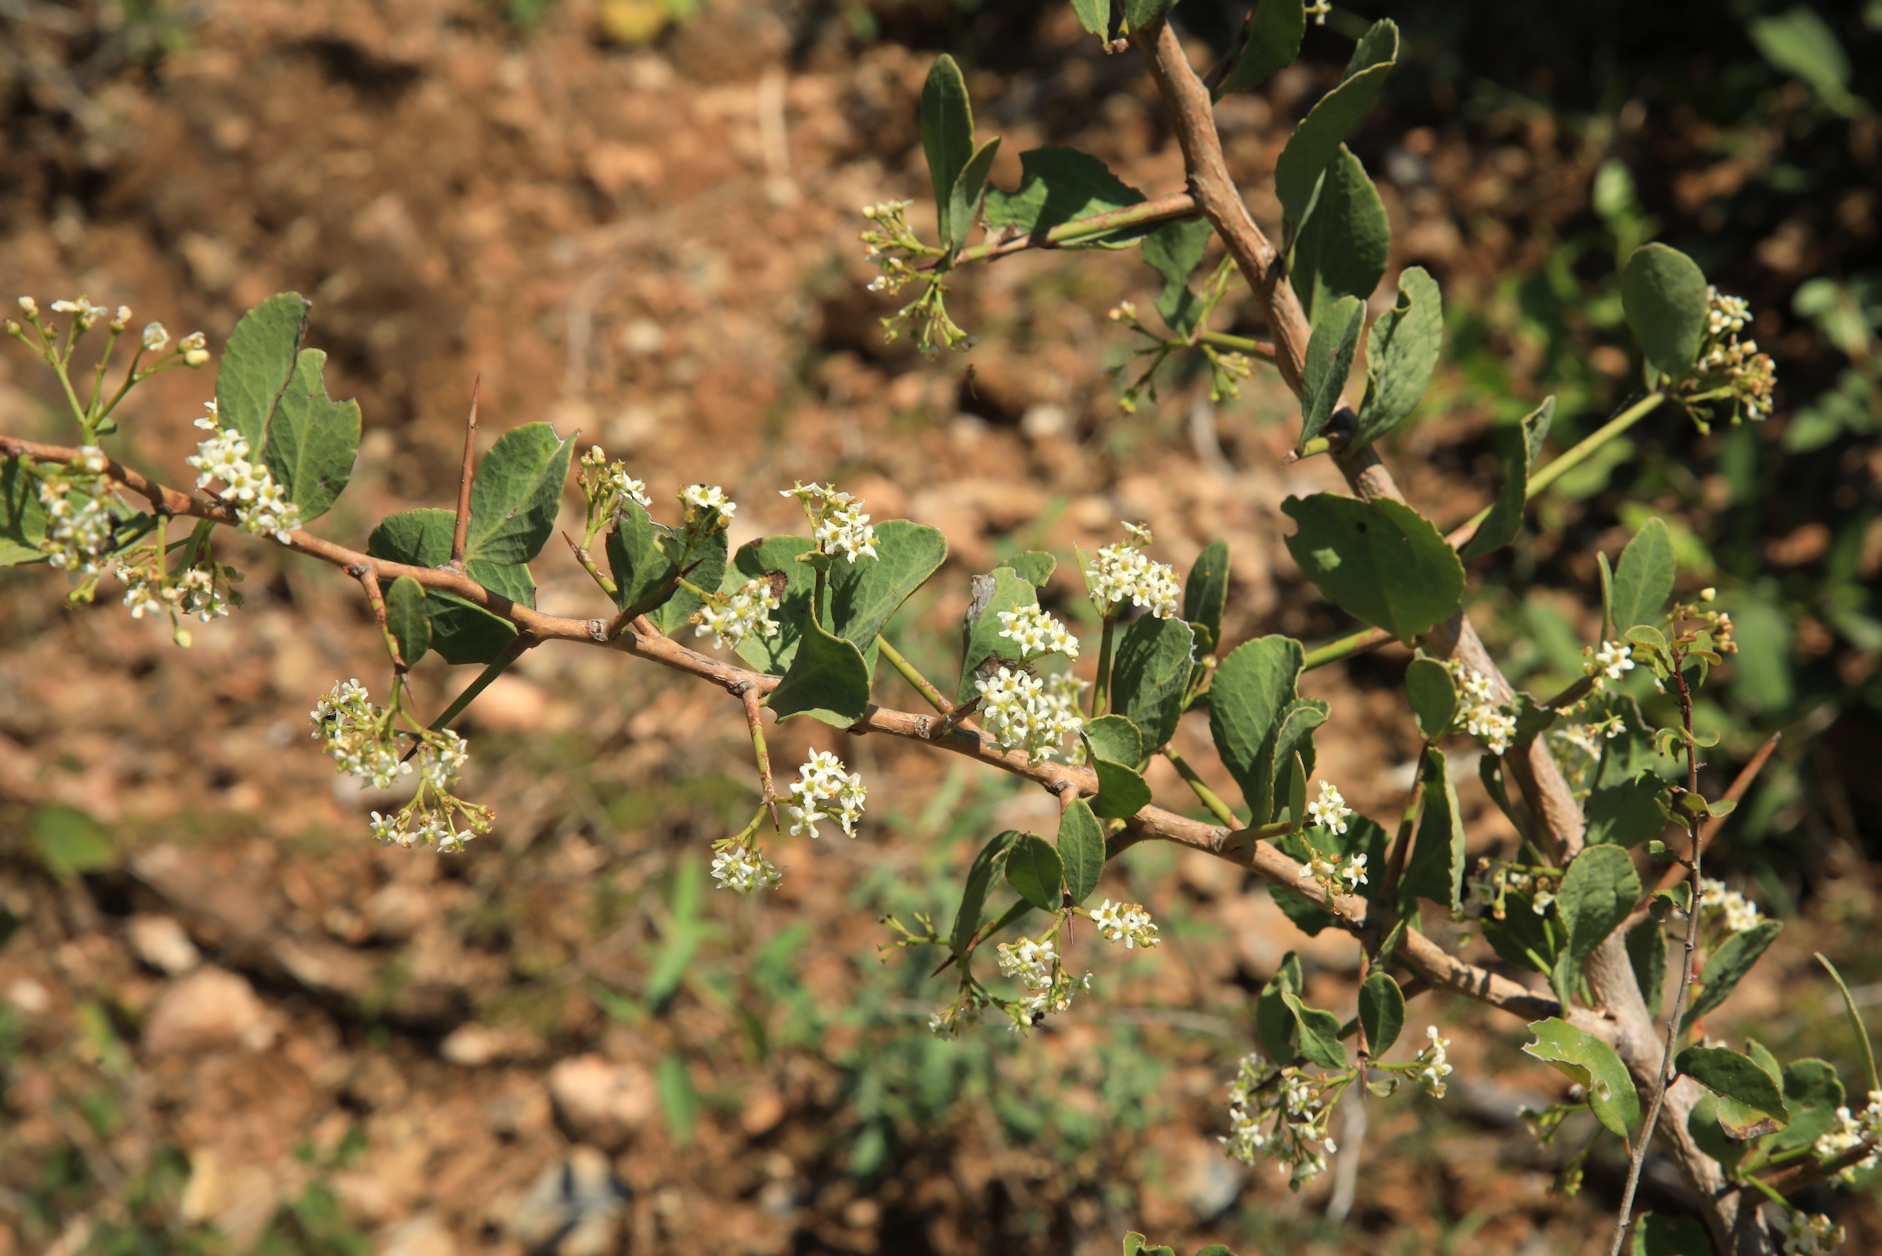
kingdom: Plantae
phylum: Tracheophyta
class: Magnoliopsida
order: Celastrales
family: Celastraceae
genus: Gymnosporia
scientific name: Gymnosporia glaucophylla
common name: Blue spike-thorn
